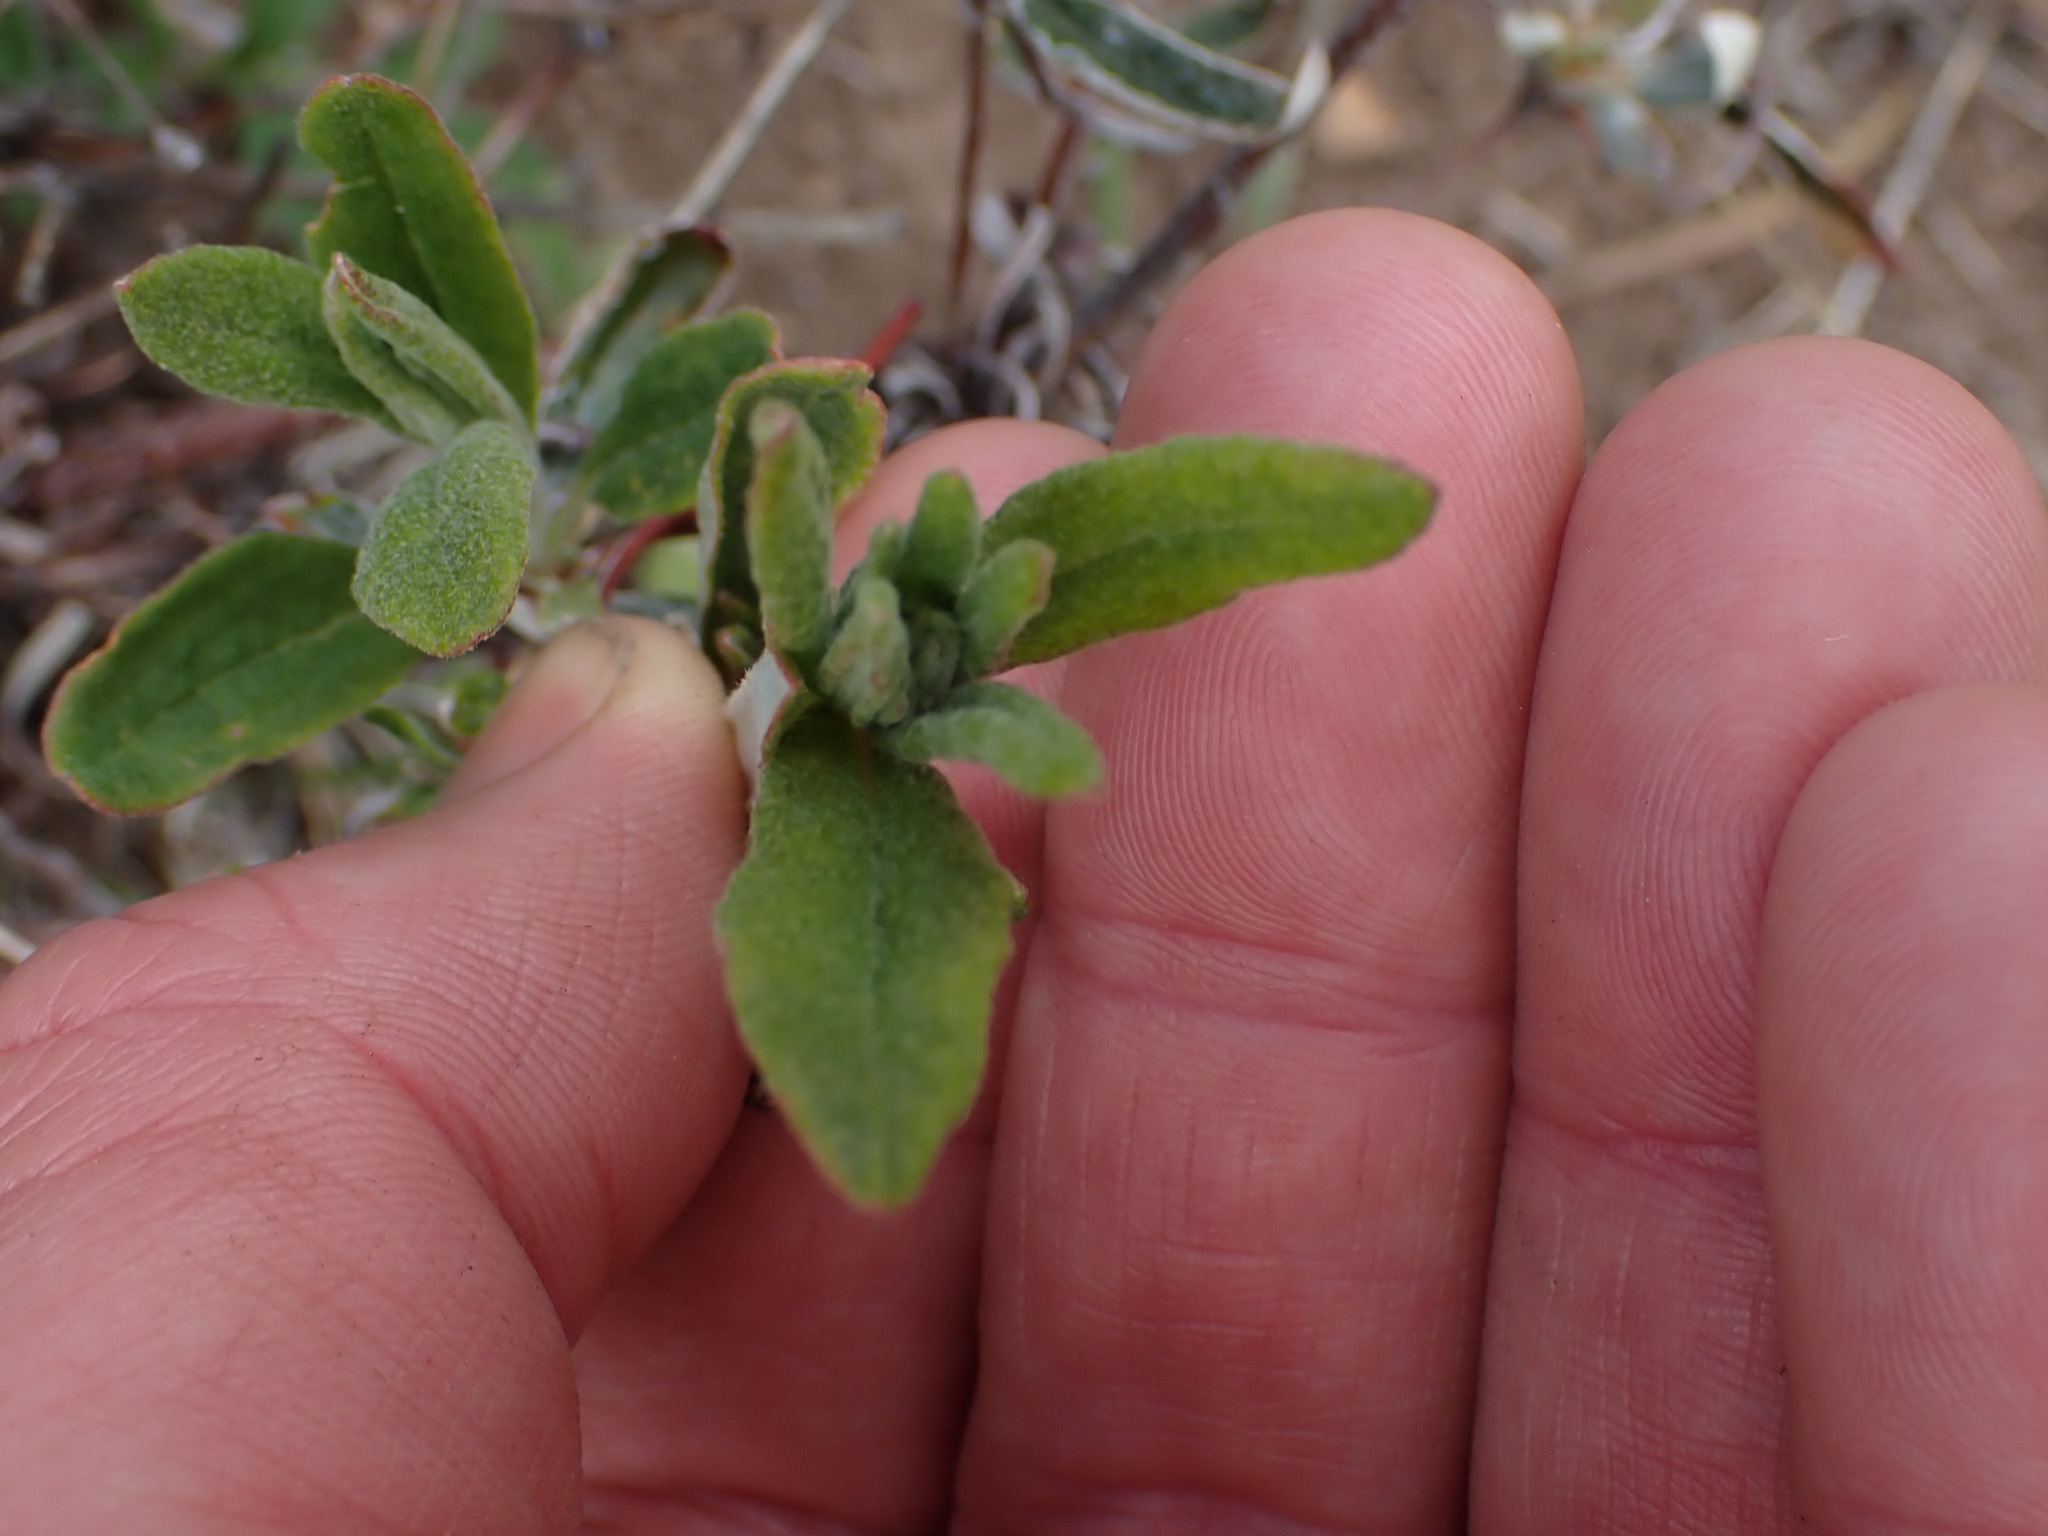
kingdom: Plantae
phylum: Tracheophyta
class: Magnoliopsida
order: Caryophyllales
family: Polygonaceae
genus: Eriogonum
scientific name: Eriogonum heracleoides
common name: Wyeth's buckwheat
